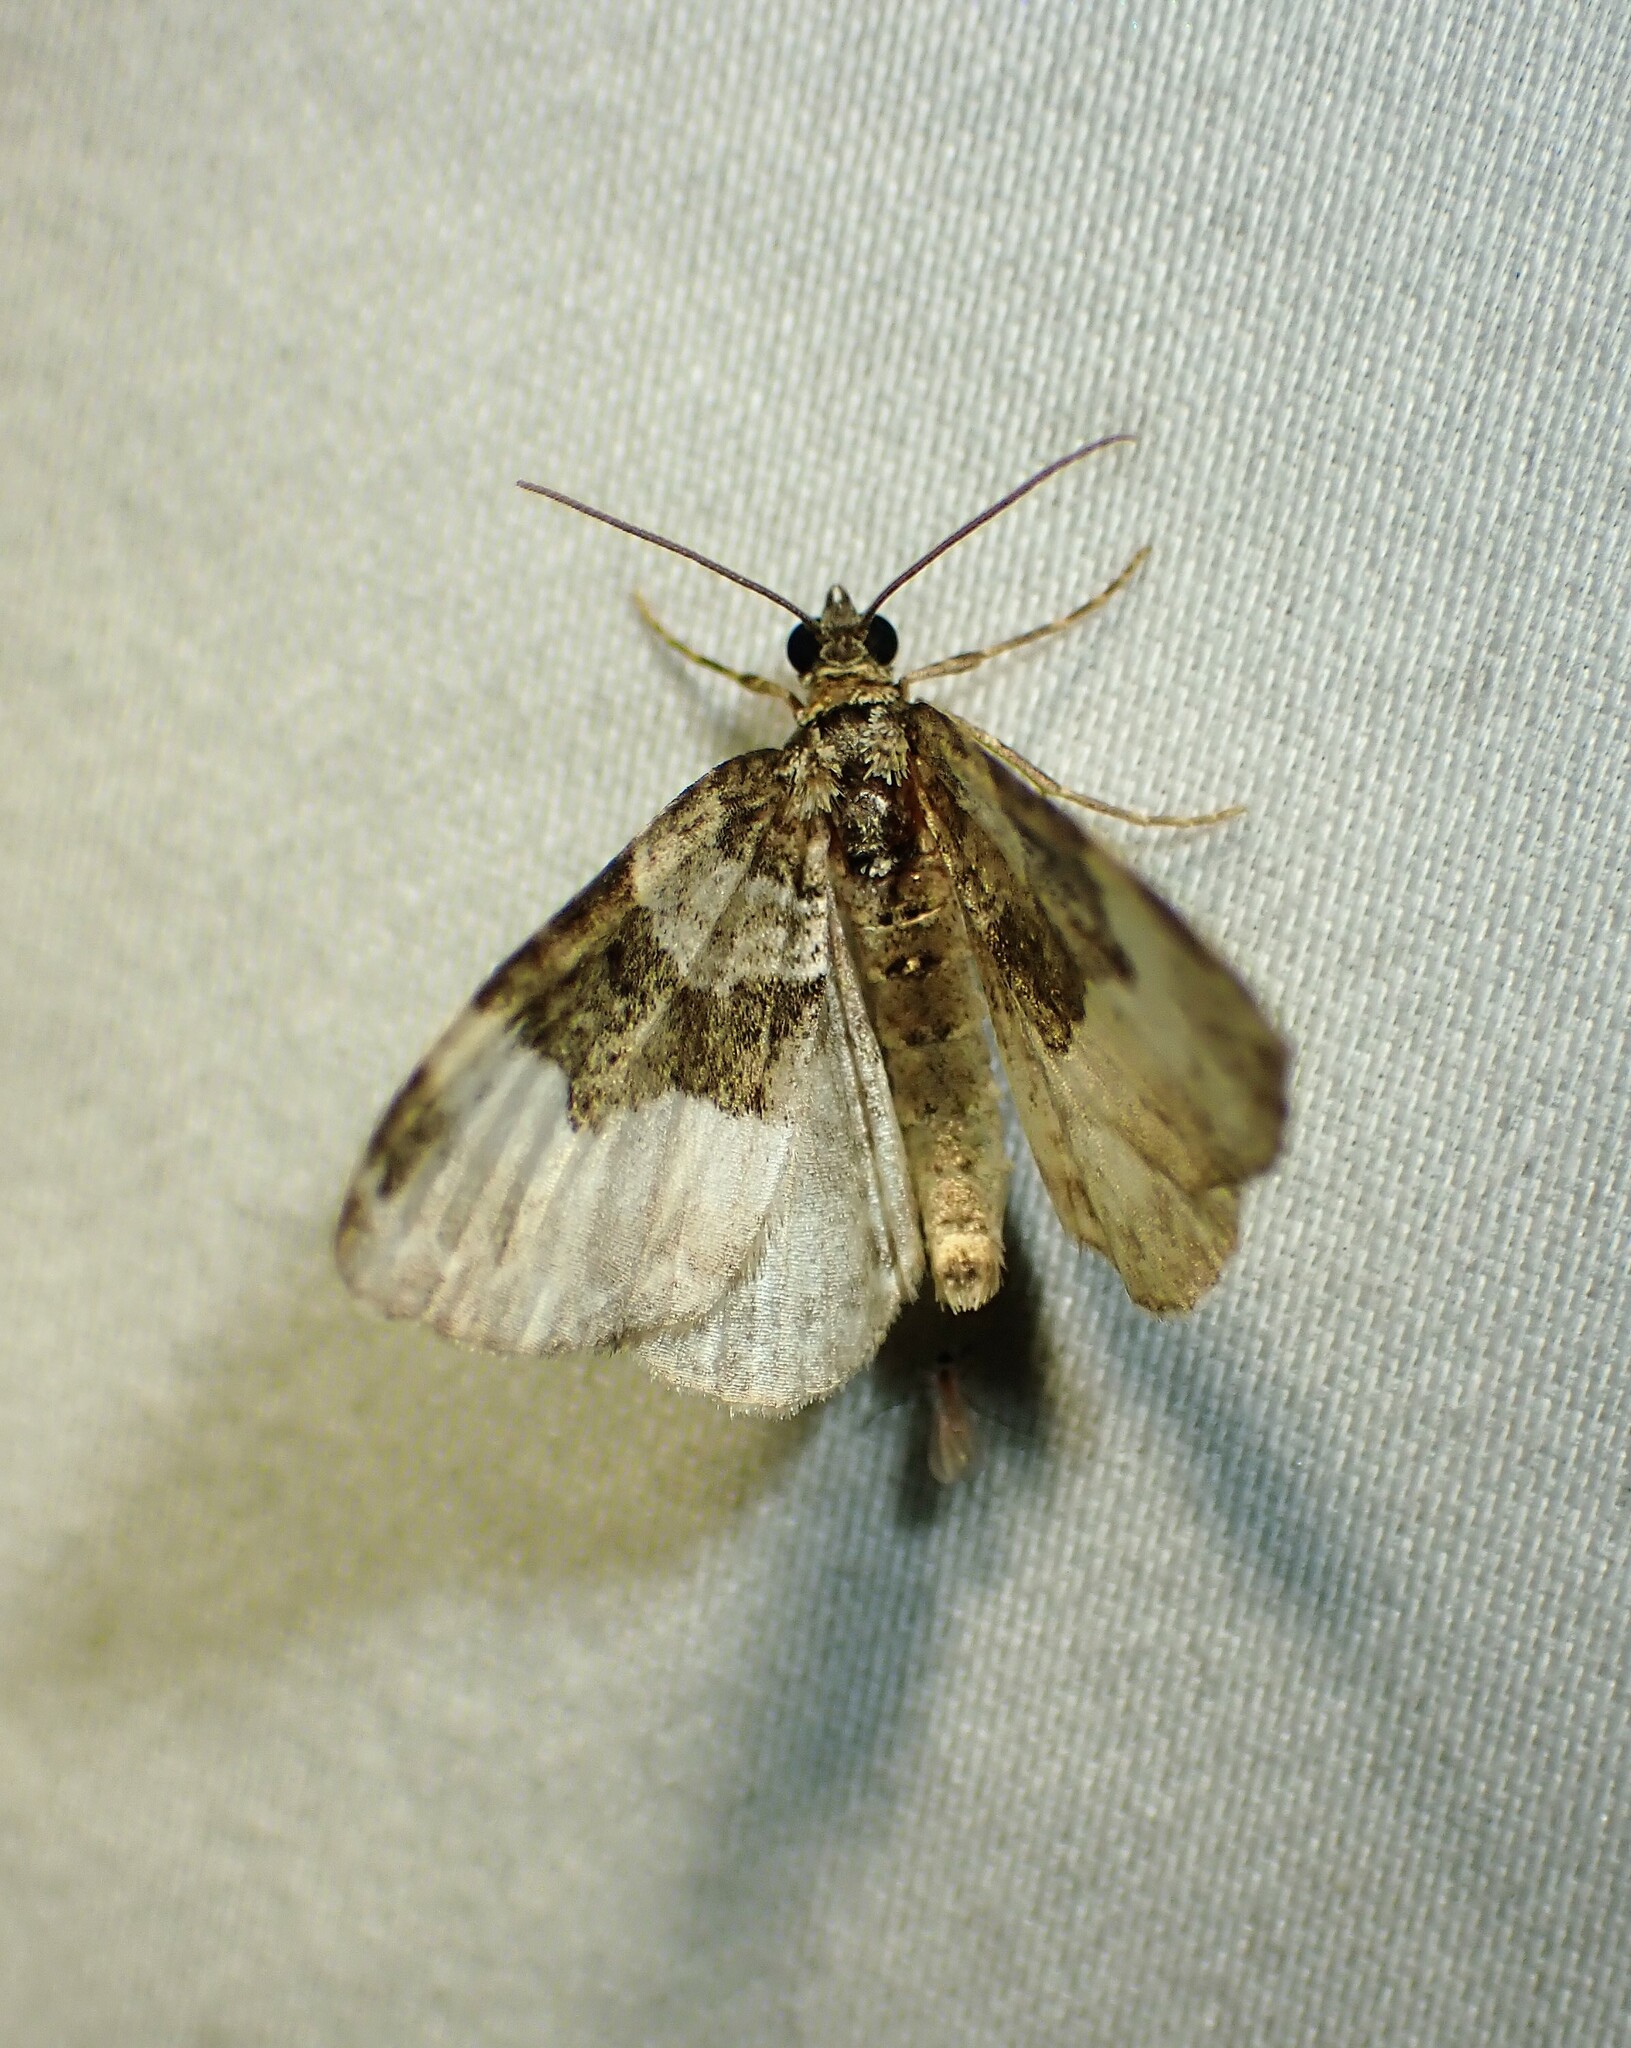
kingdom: Animalia
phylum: Arthropoda
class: Insecta
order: Lepidoptera
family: Geometridae
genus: Euphyia
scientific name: Euphyia intermediata
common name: Sharp-angled carpet
